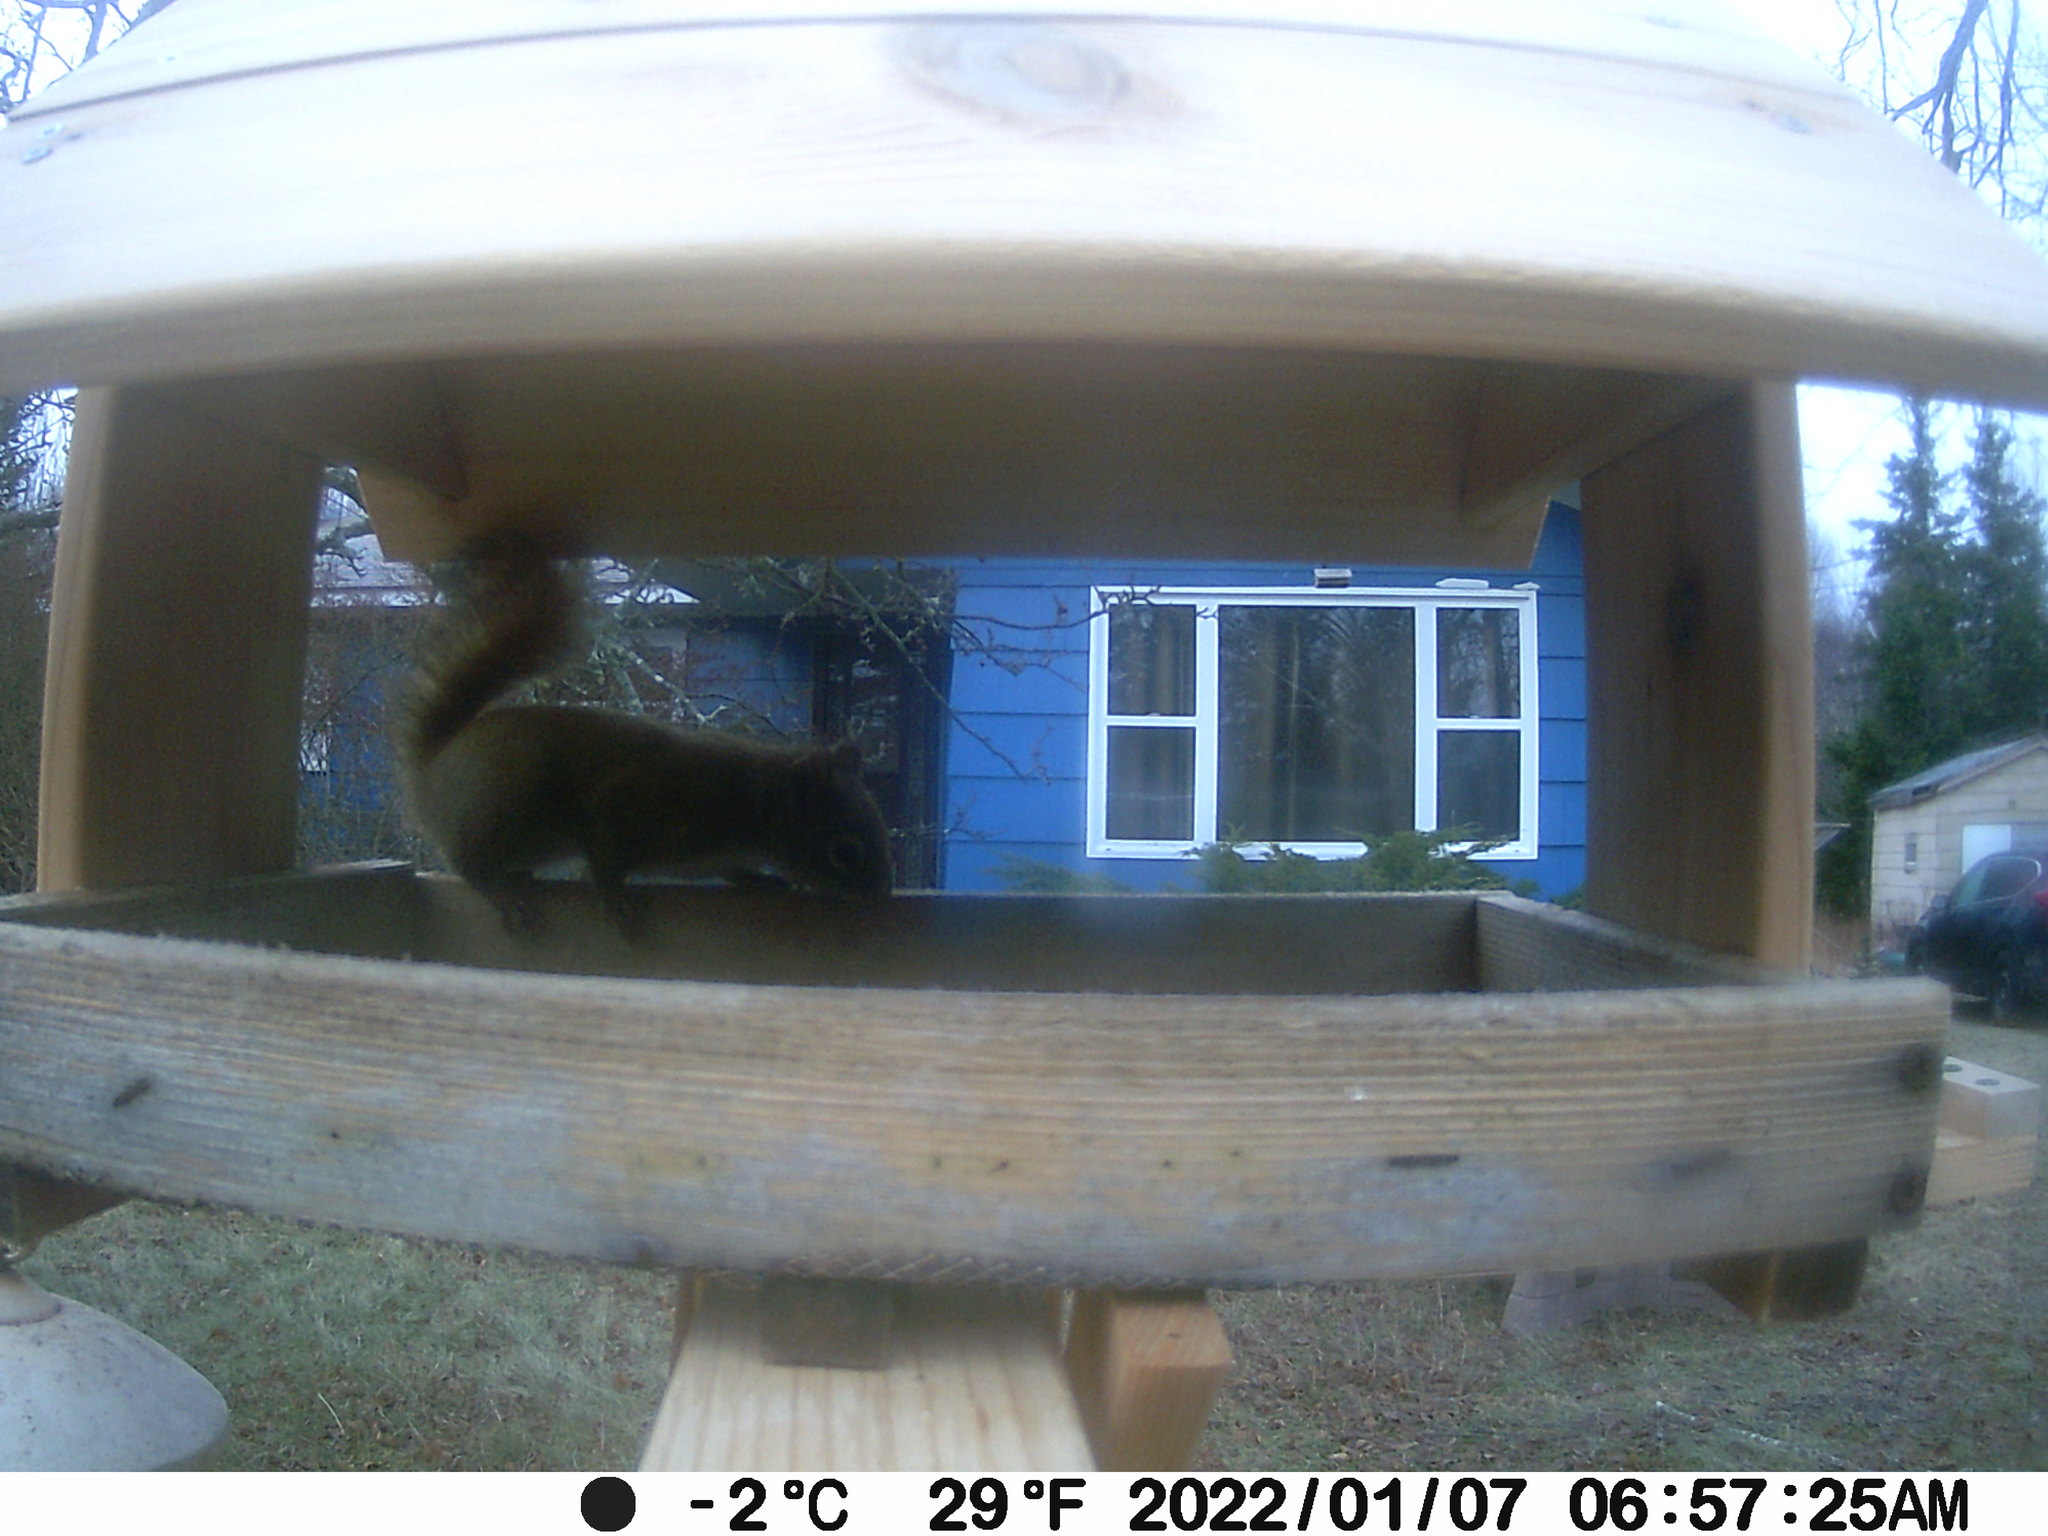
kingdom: Animalia
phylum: Chordata
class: Mammalia
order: Rodentia
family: Sciuridae
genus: Tamiasciurus
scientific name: Tamiasciurus hudsonicus
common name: Red squirrel
